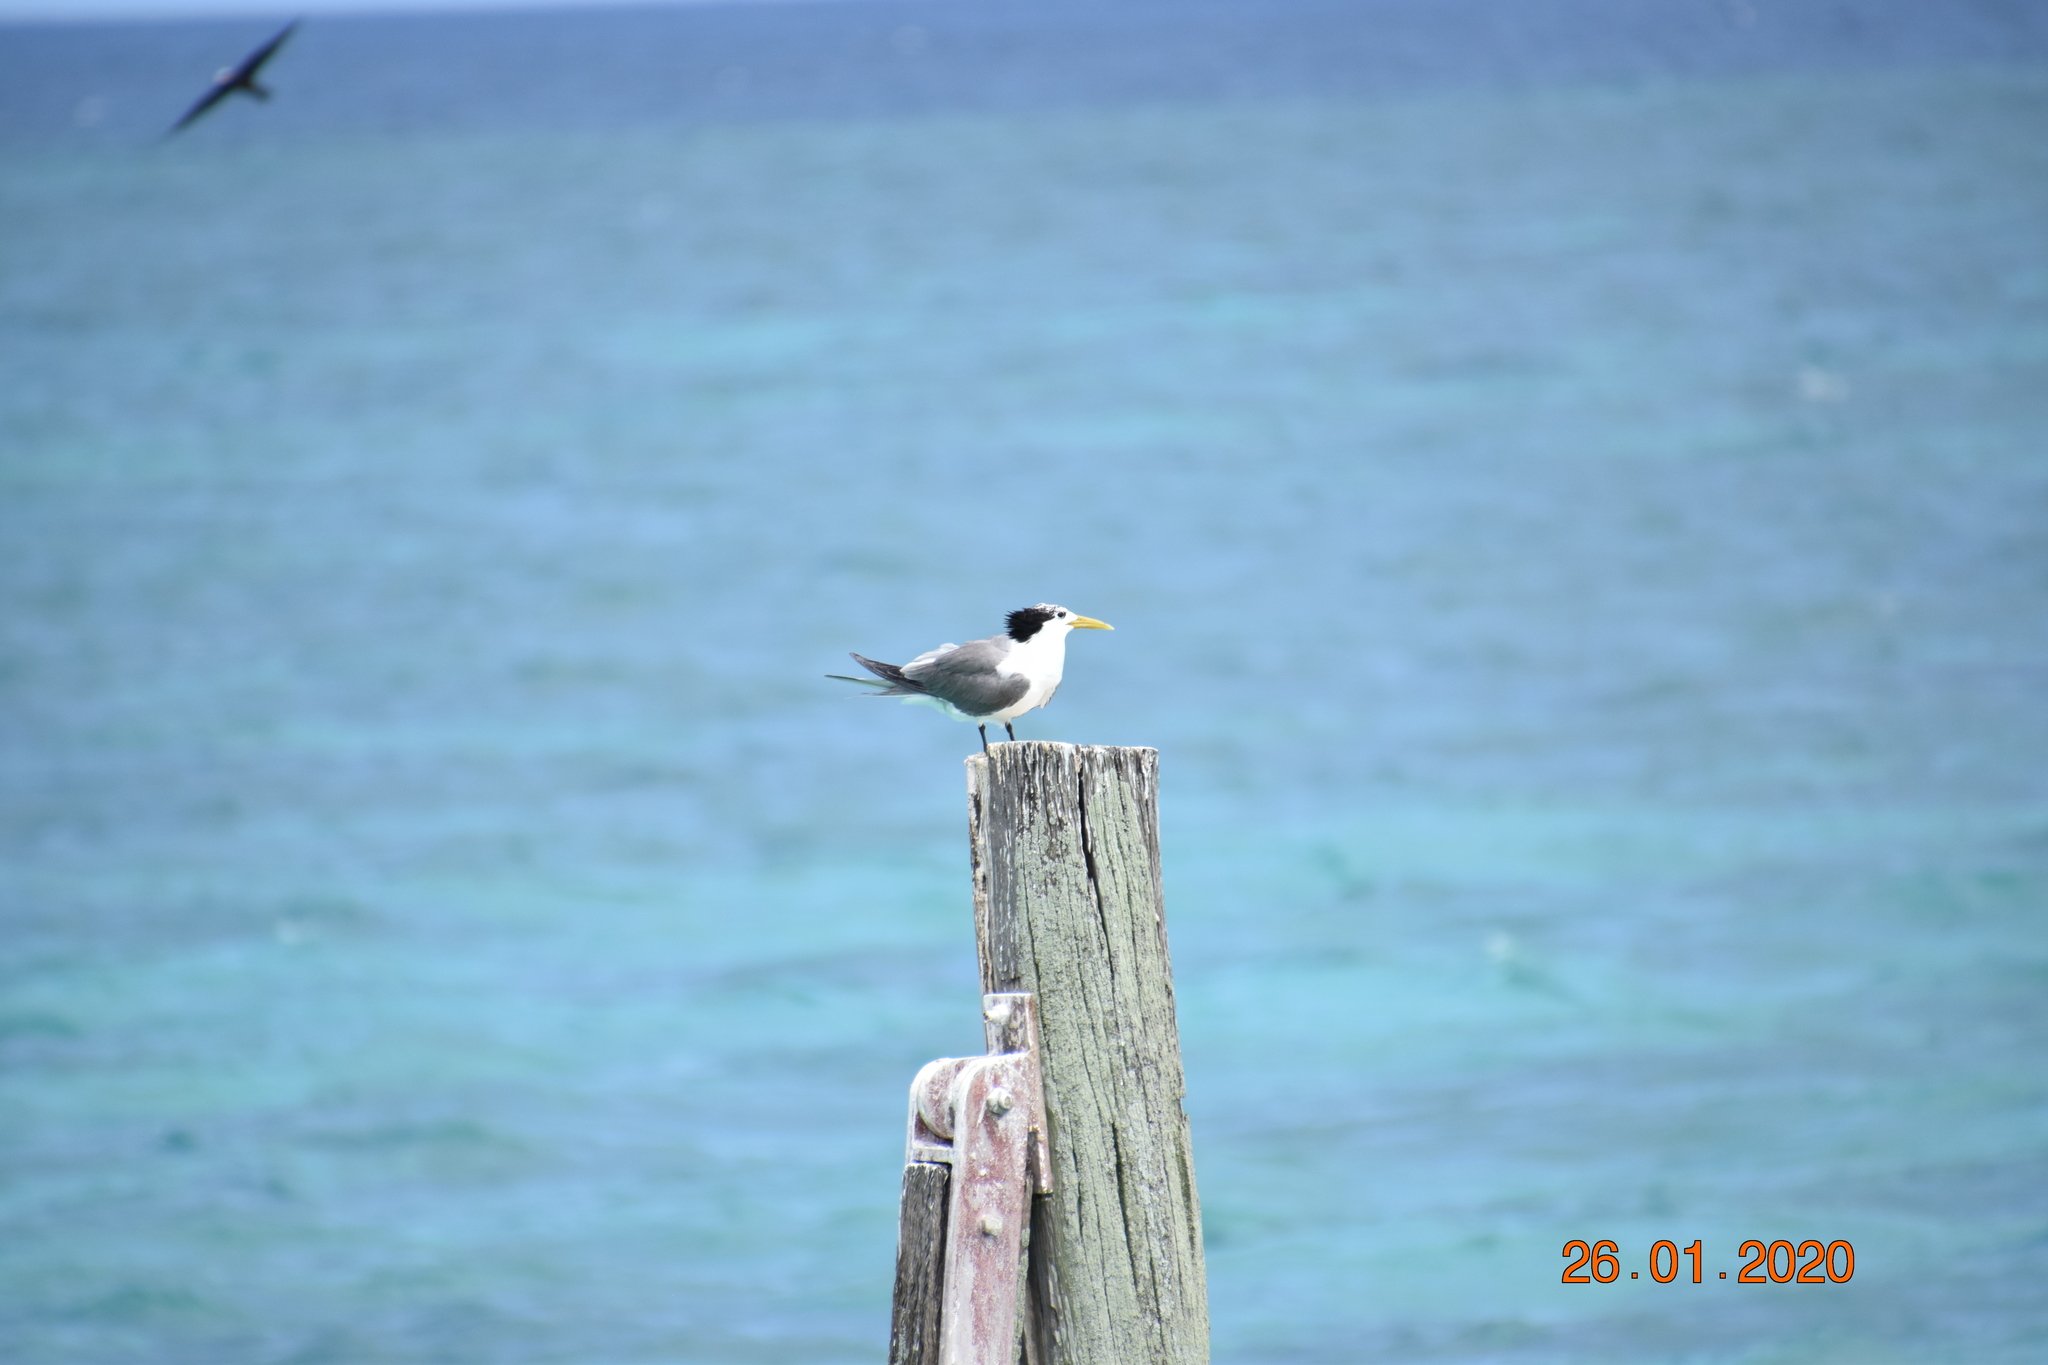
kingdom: Animalia
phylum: Chordata
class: Aves
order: Charadriiformes
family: Laridae
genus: Thalasseus
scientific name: Thalasseus bergii
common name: Greater crested tern
